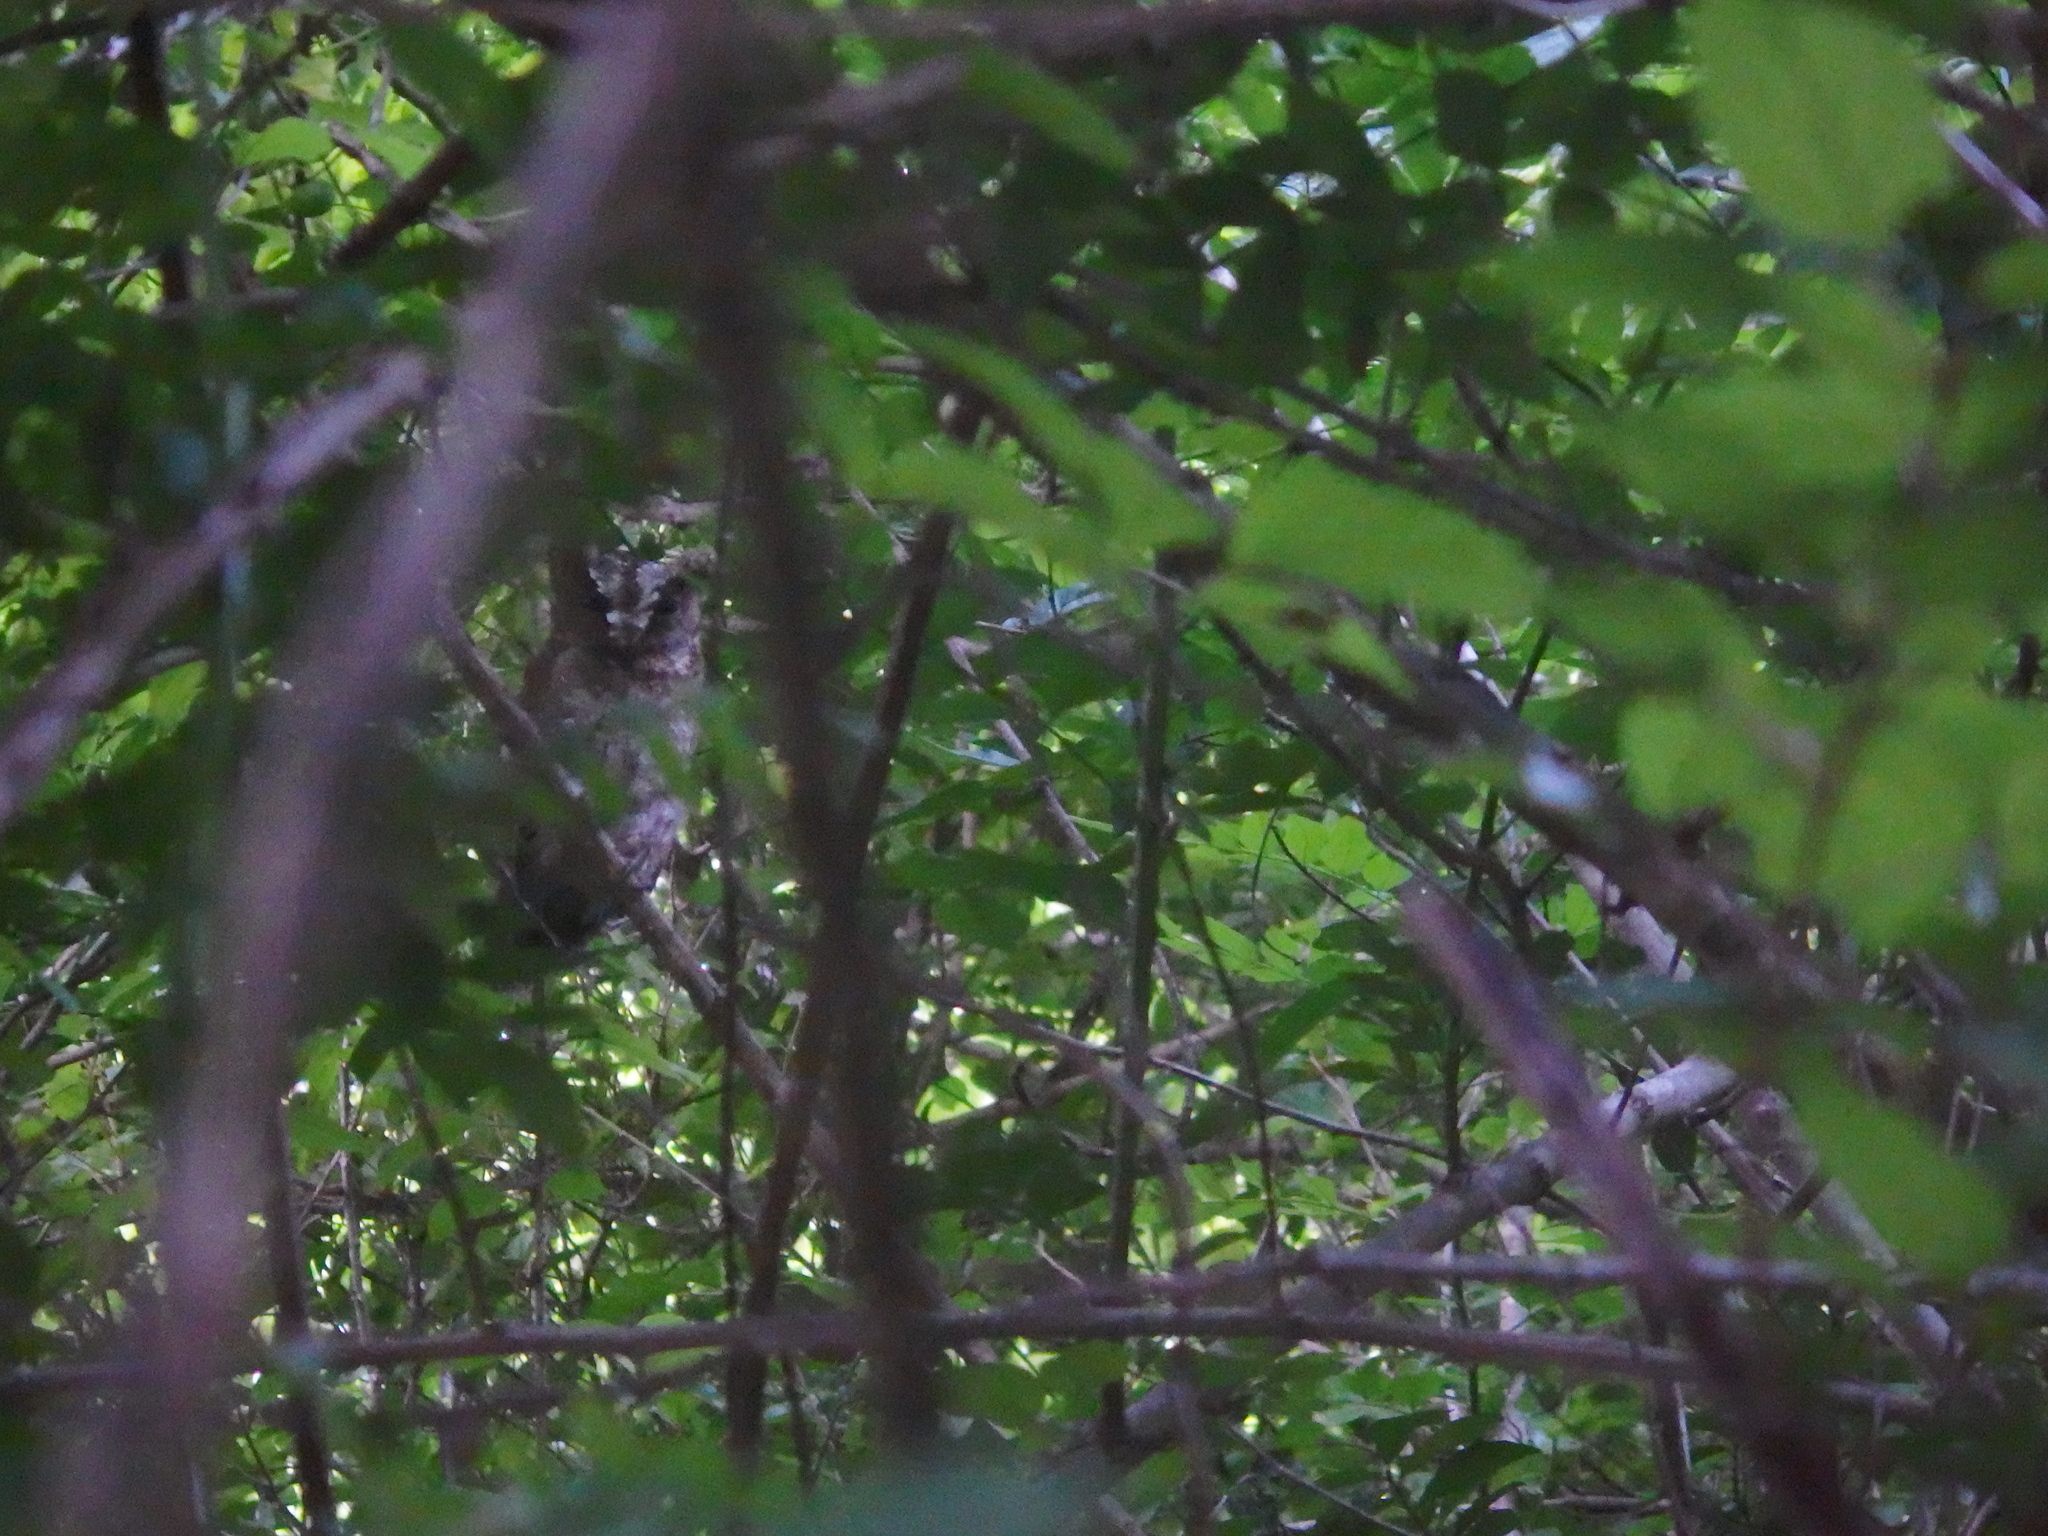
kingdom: Animalia
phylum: Chordata
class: Aves
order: Strigiformes
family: Strigidae
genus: Otus
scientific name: Otus lempiji
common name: Sunda scops-owl
